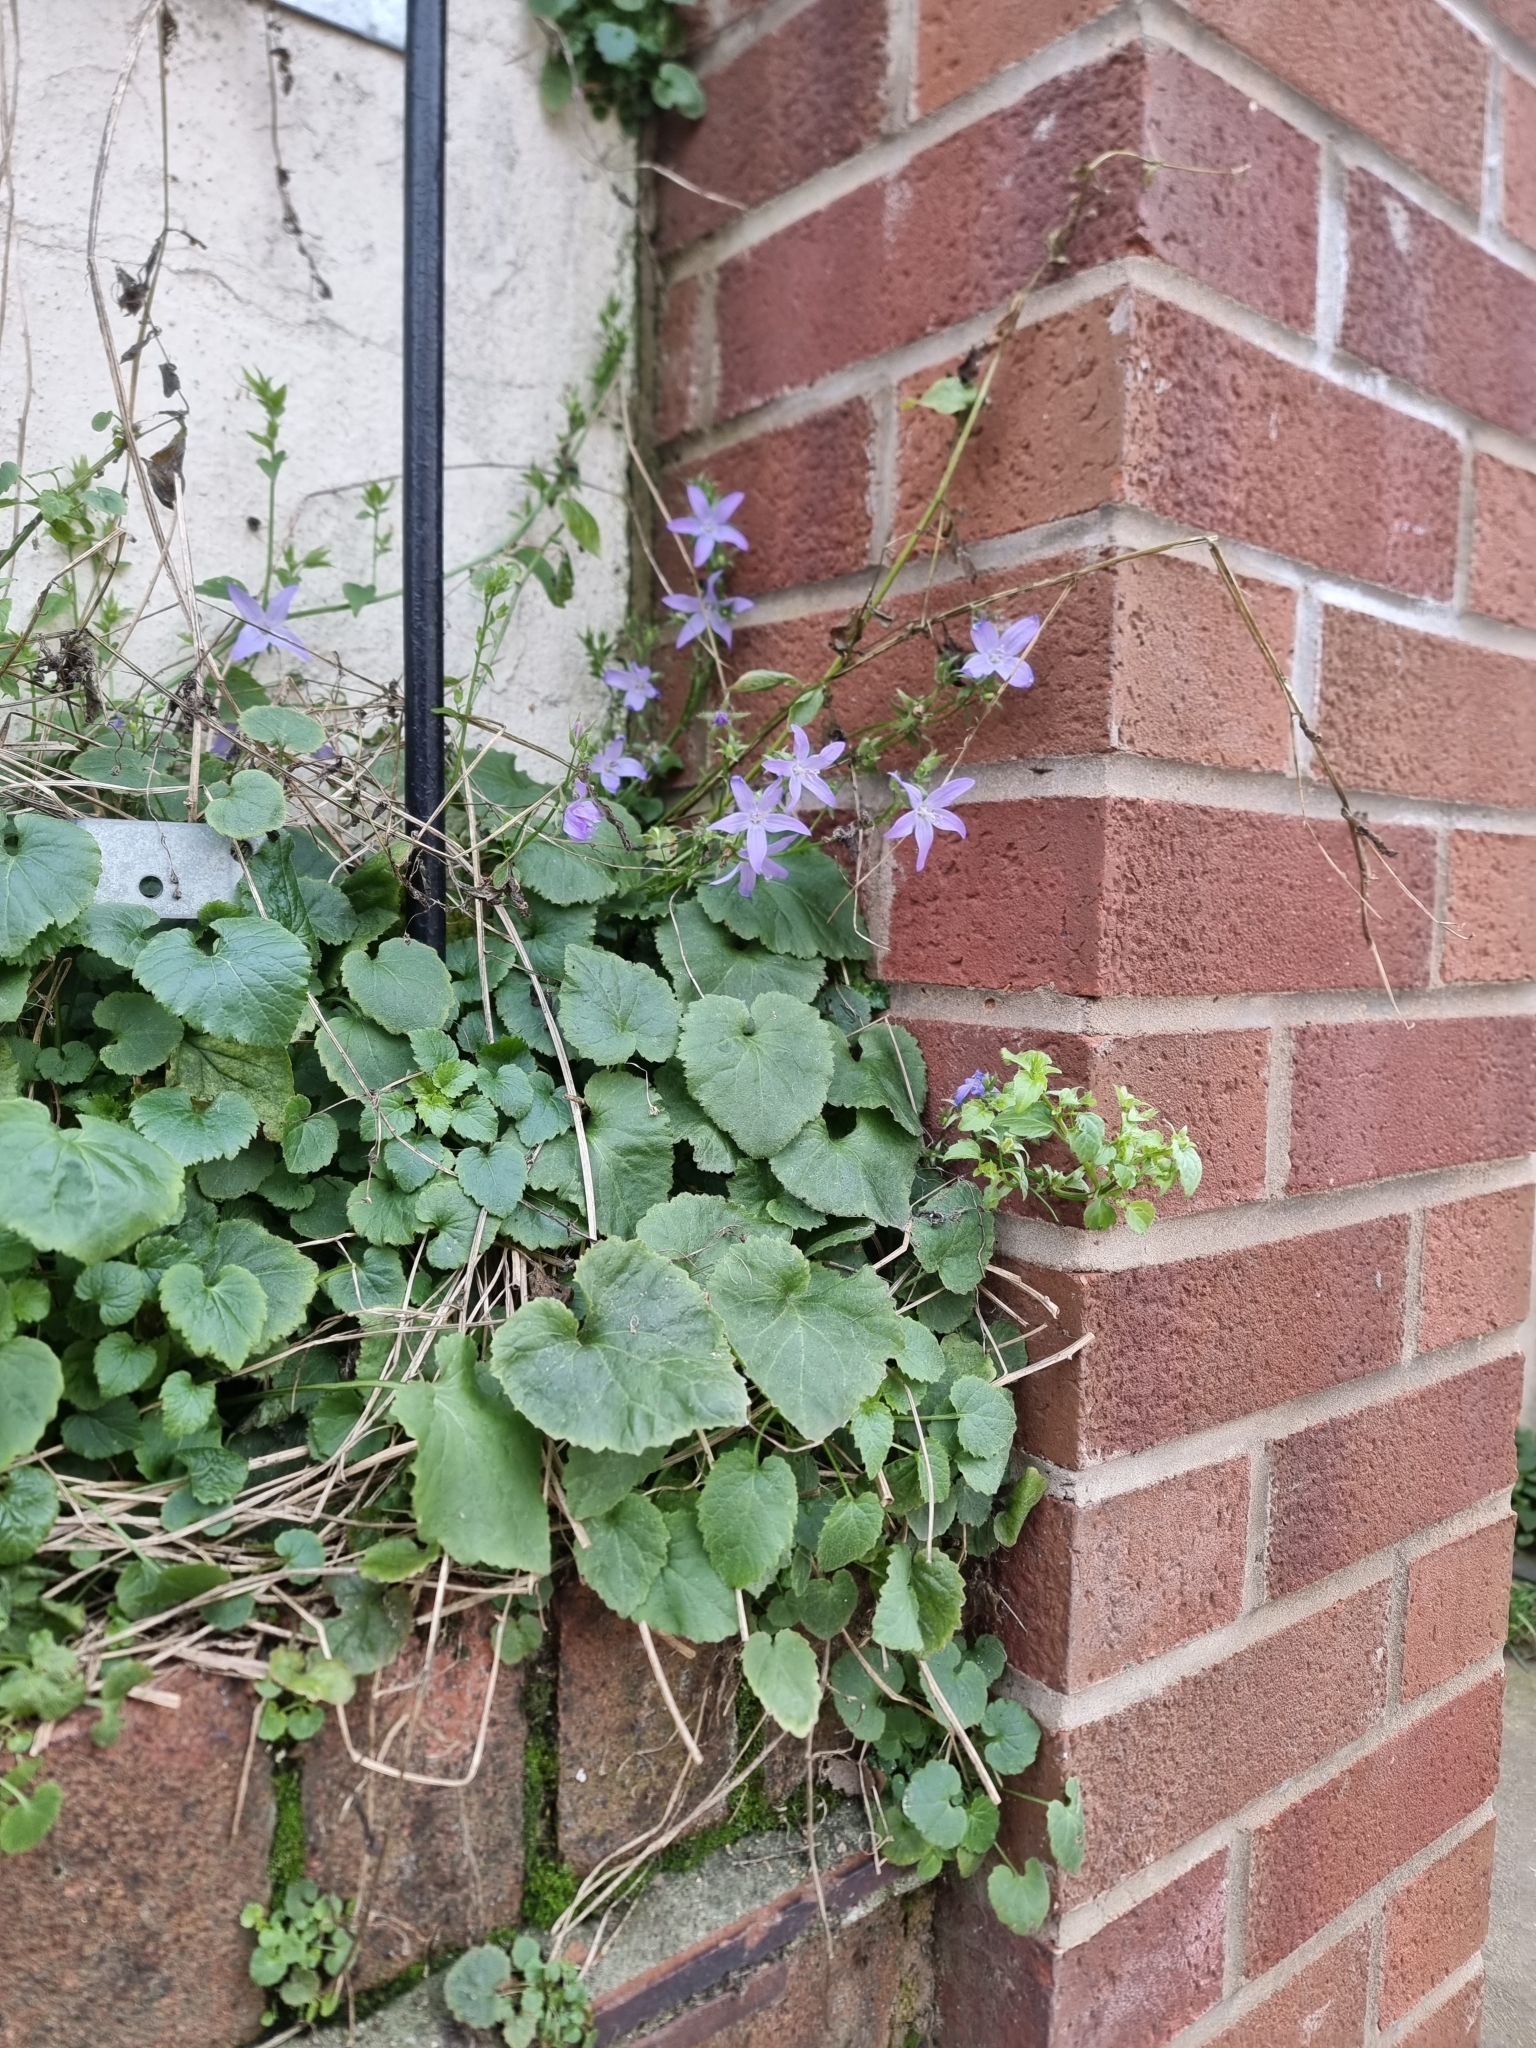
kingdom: Plantae
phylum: Tracheophyta
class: Magnoliopsida
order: Asterales
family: Campanulaceae
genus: Campanula
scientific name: Campanula poscharskyana
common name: Trailing bellflower
